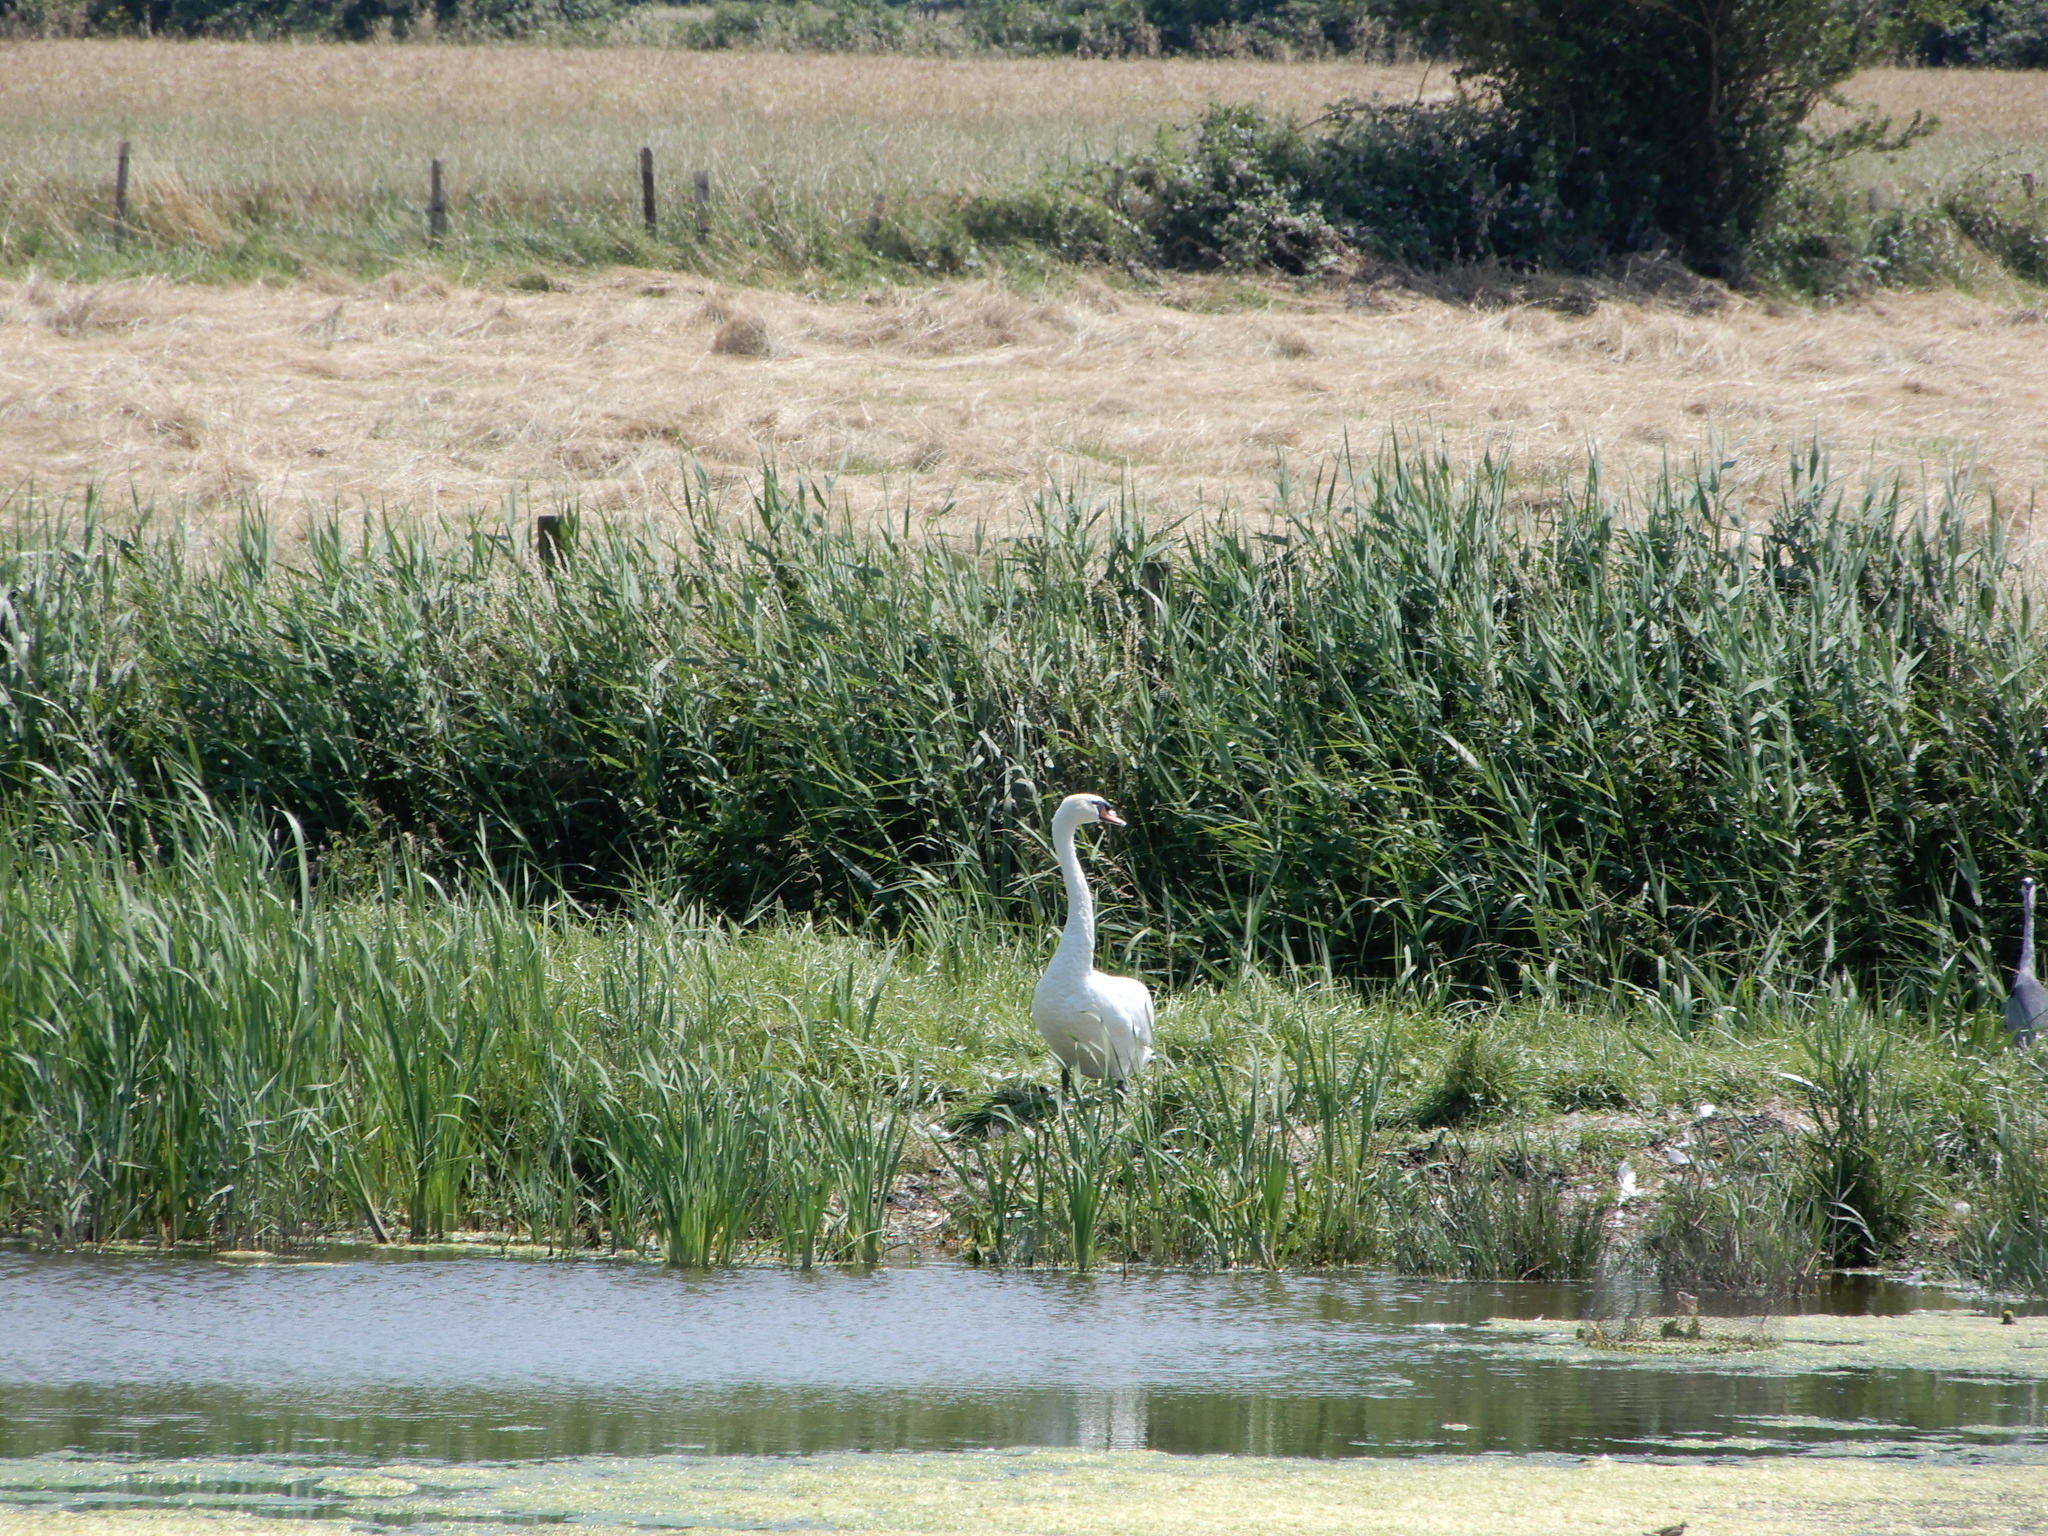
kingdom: Animalia
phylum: Chordata
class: Aves
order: Anseriformes
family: Anatidae
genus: Cygnus
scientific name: Cygnus olor
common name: Mute swan
